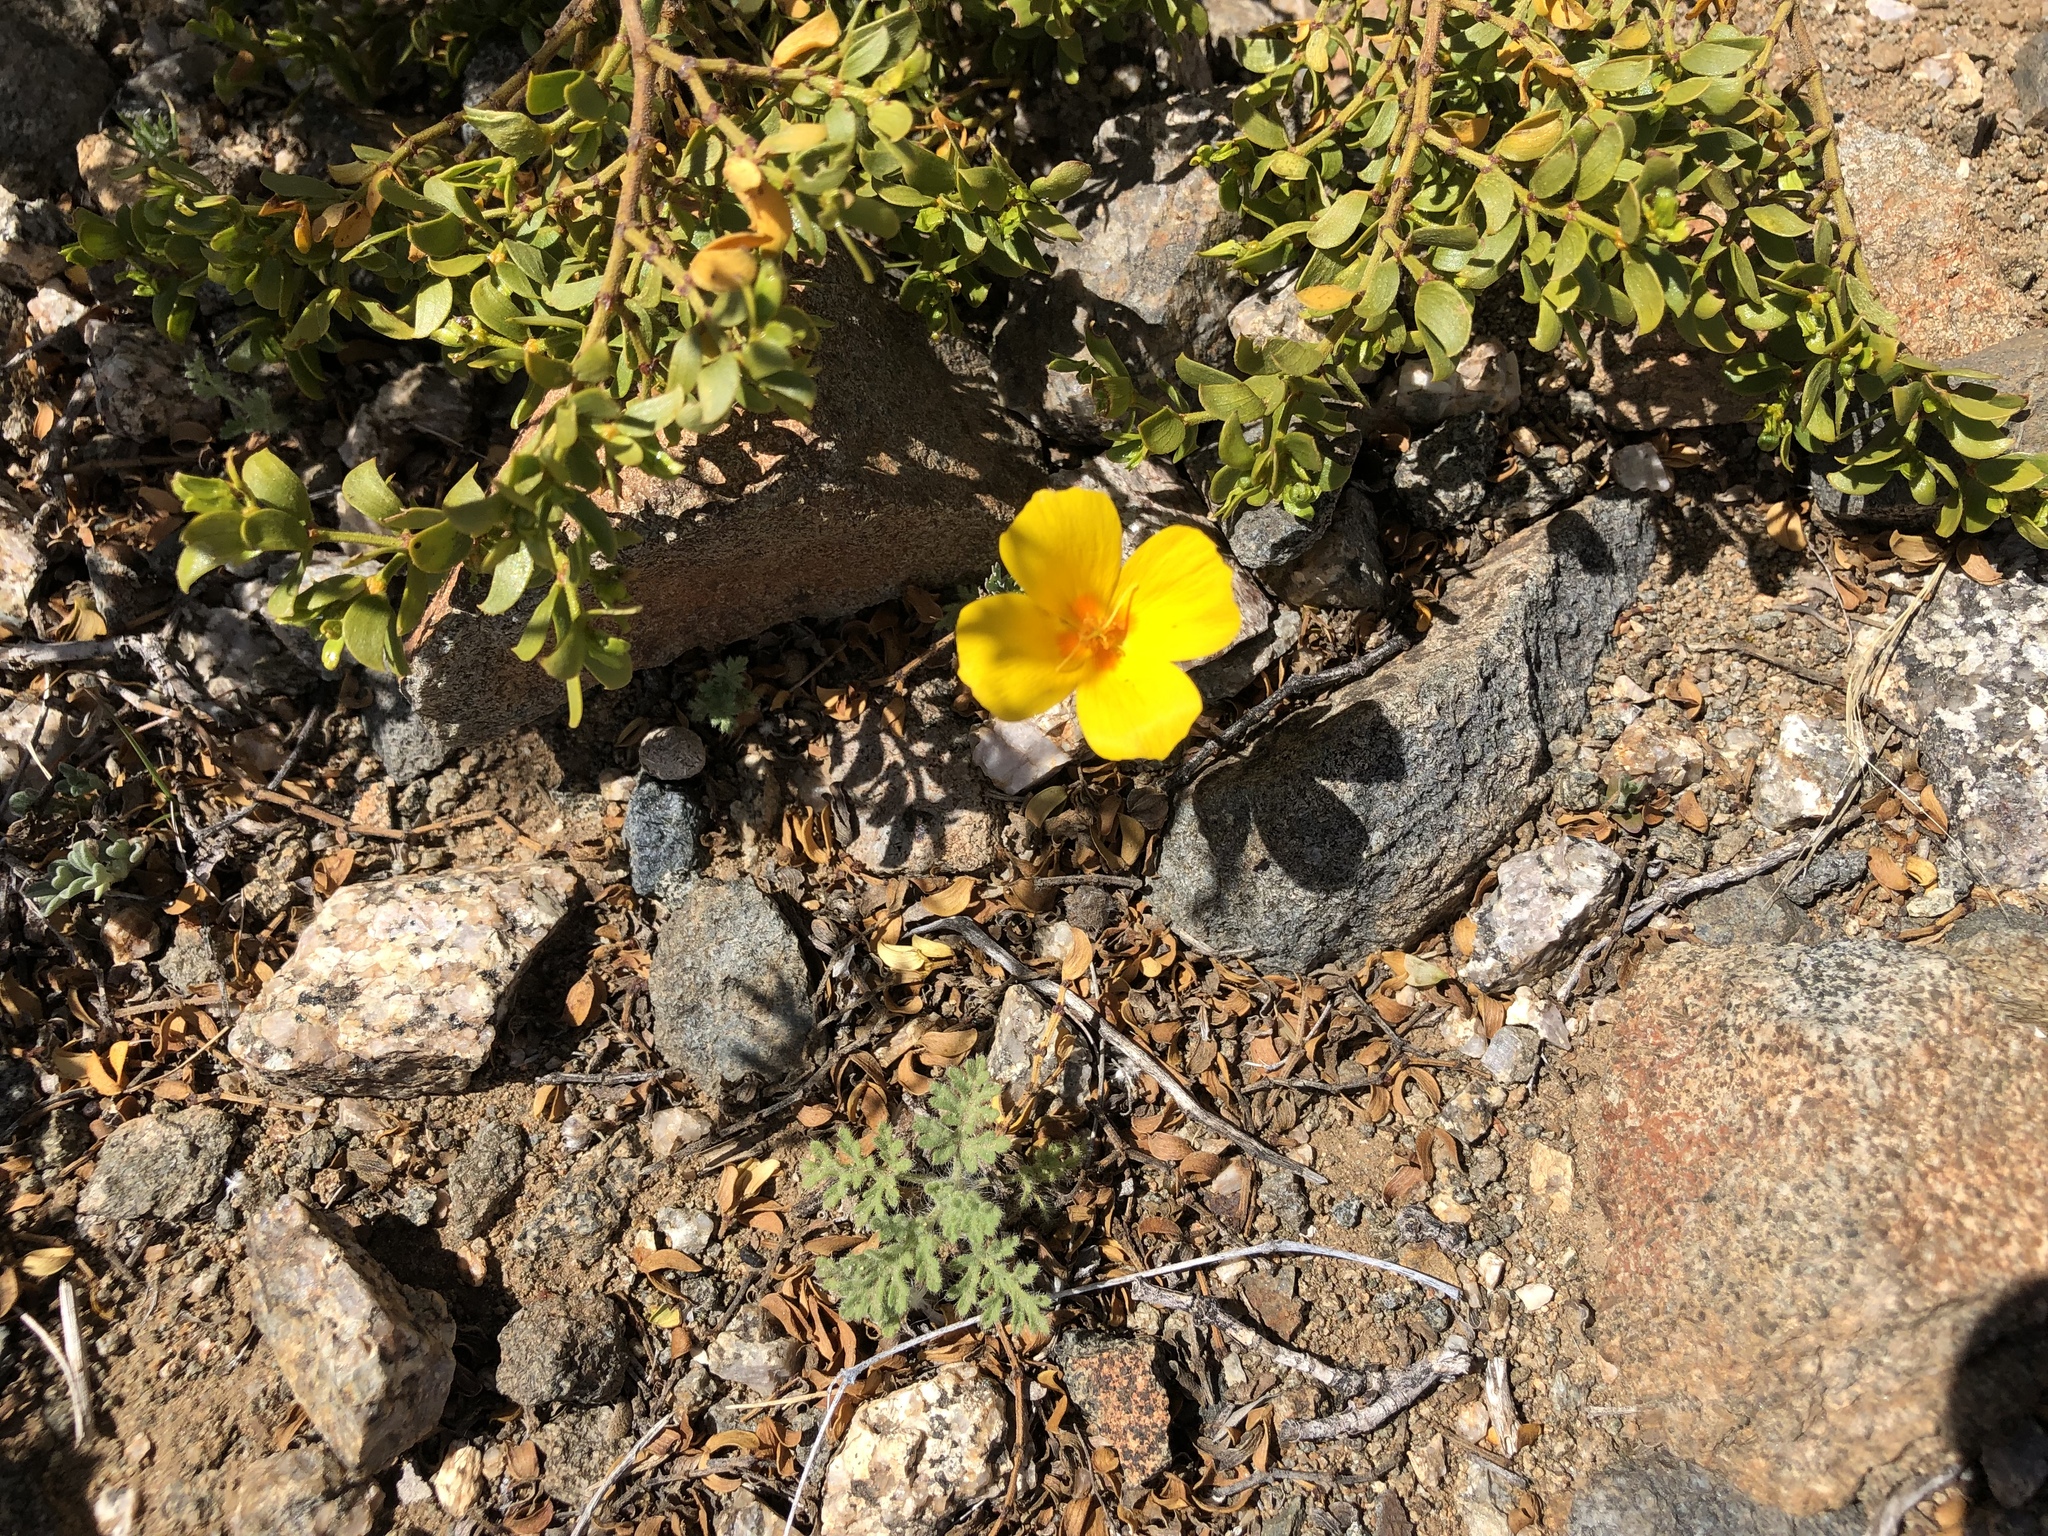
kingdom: Plantae
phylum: Tracheophyta
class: Magnoliopsida
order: Ranunculales
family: Papaveraceae
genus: Eschscholzia
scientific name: Eschscholzia californica
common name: California poppy
